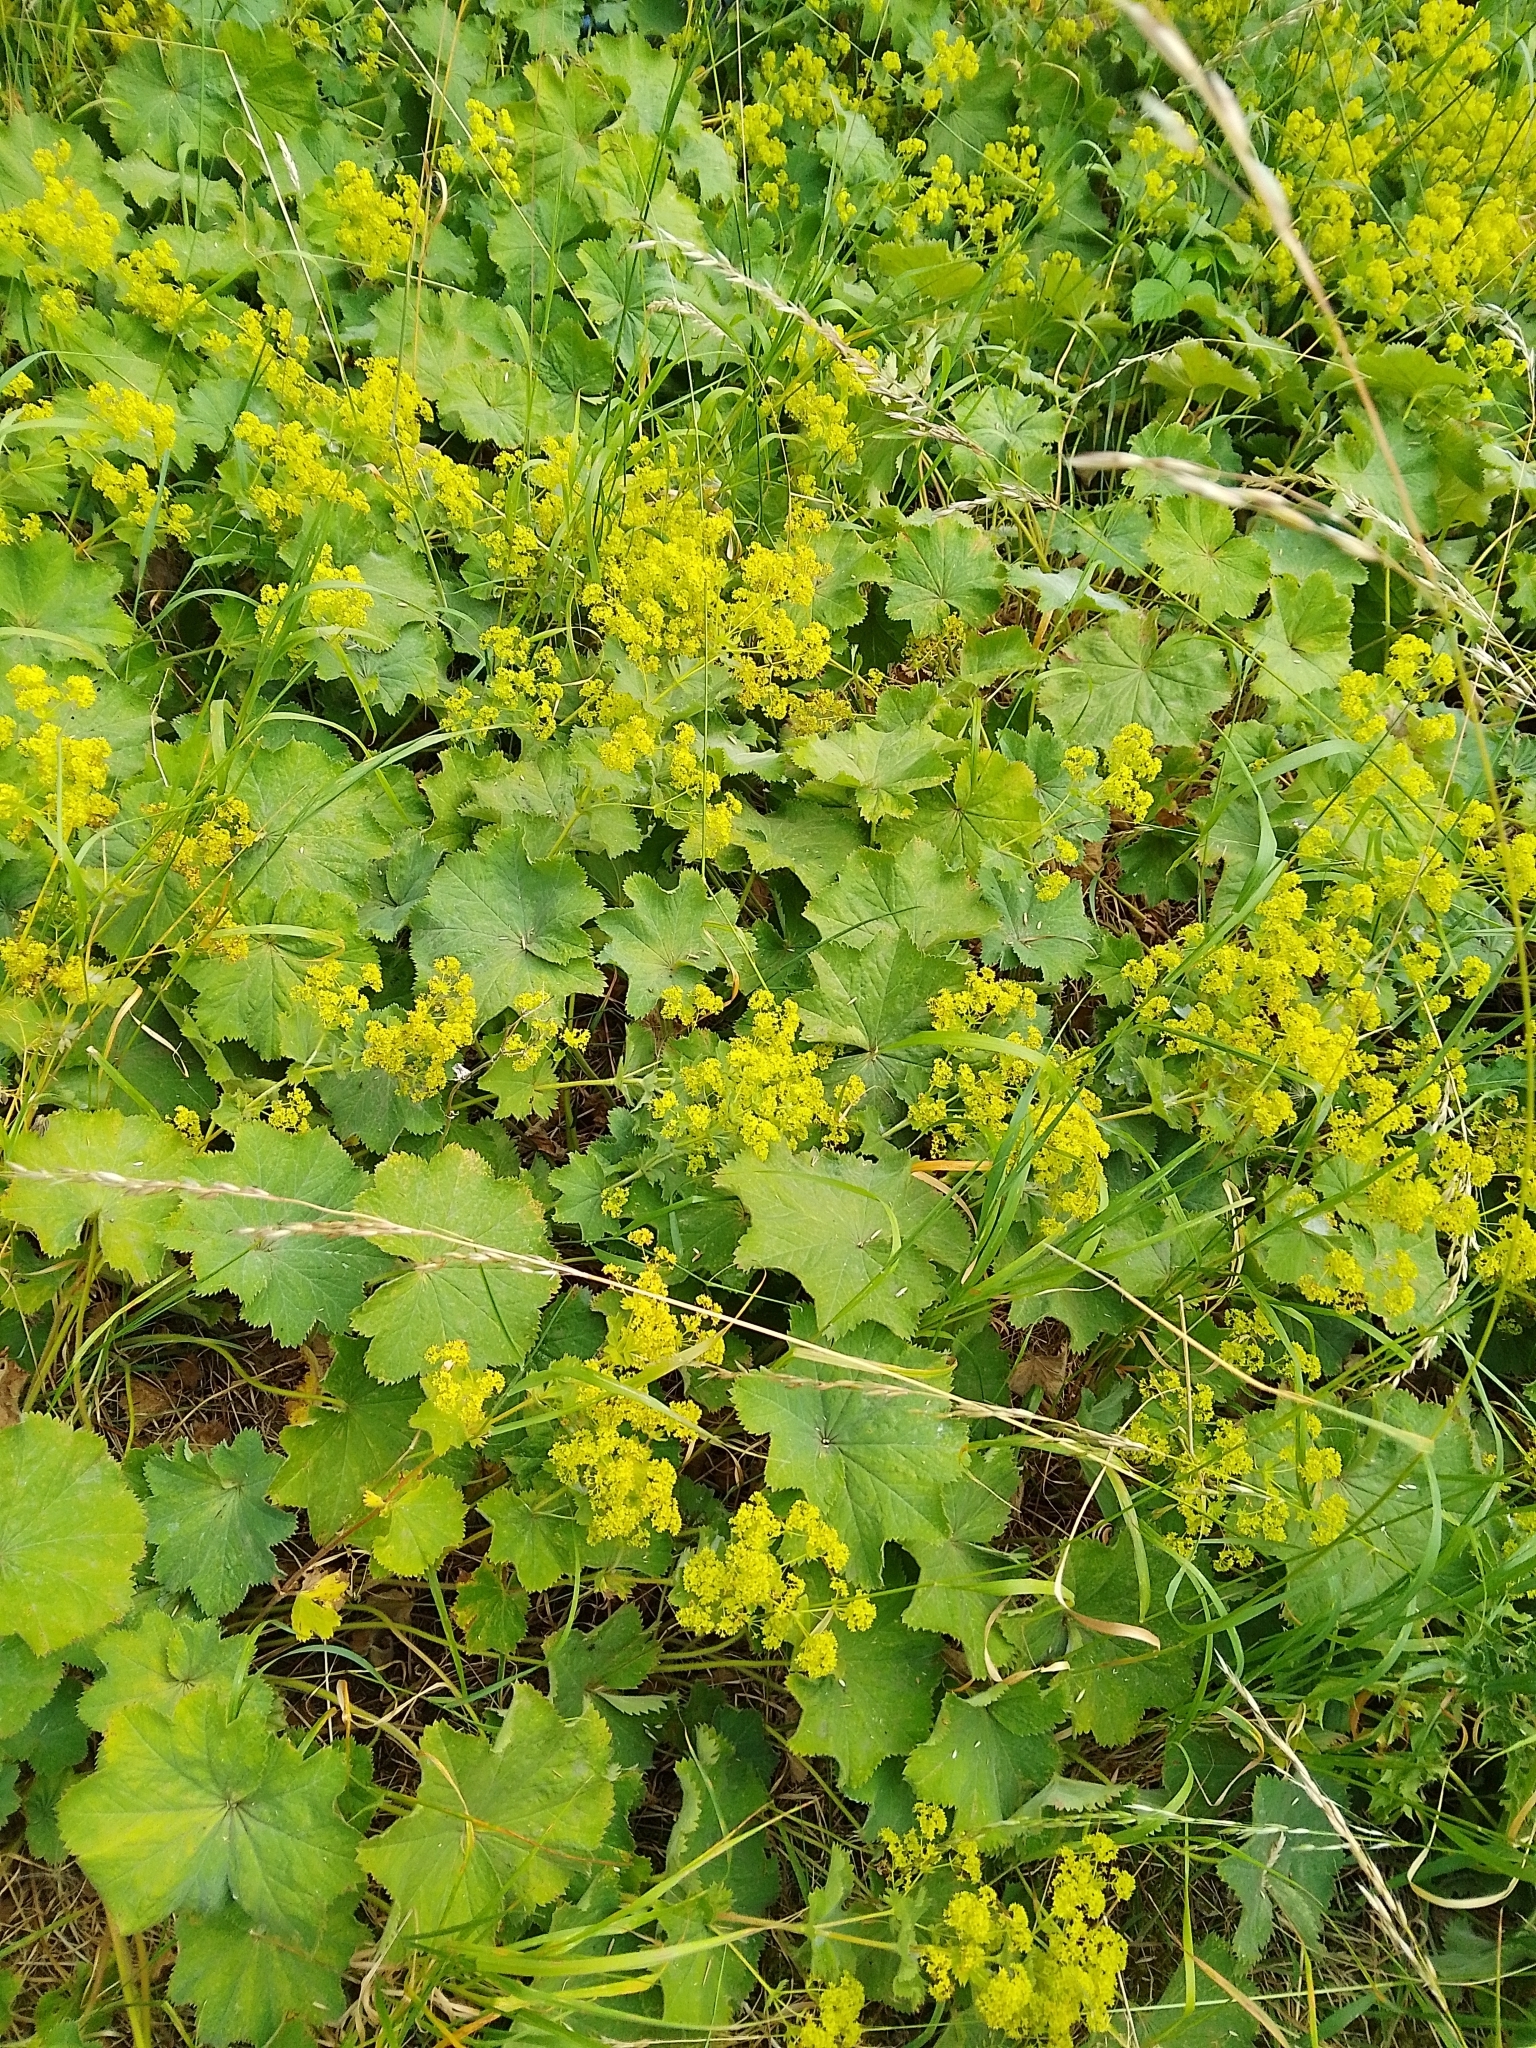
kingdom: Plantae
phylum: Tracheophyta
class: Magnoliopsida
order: Rosales
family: Rosaceae
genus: Alchemilla
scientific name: Alchemilla mollis
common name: Lady's-mantle
